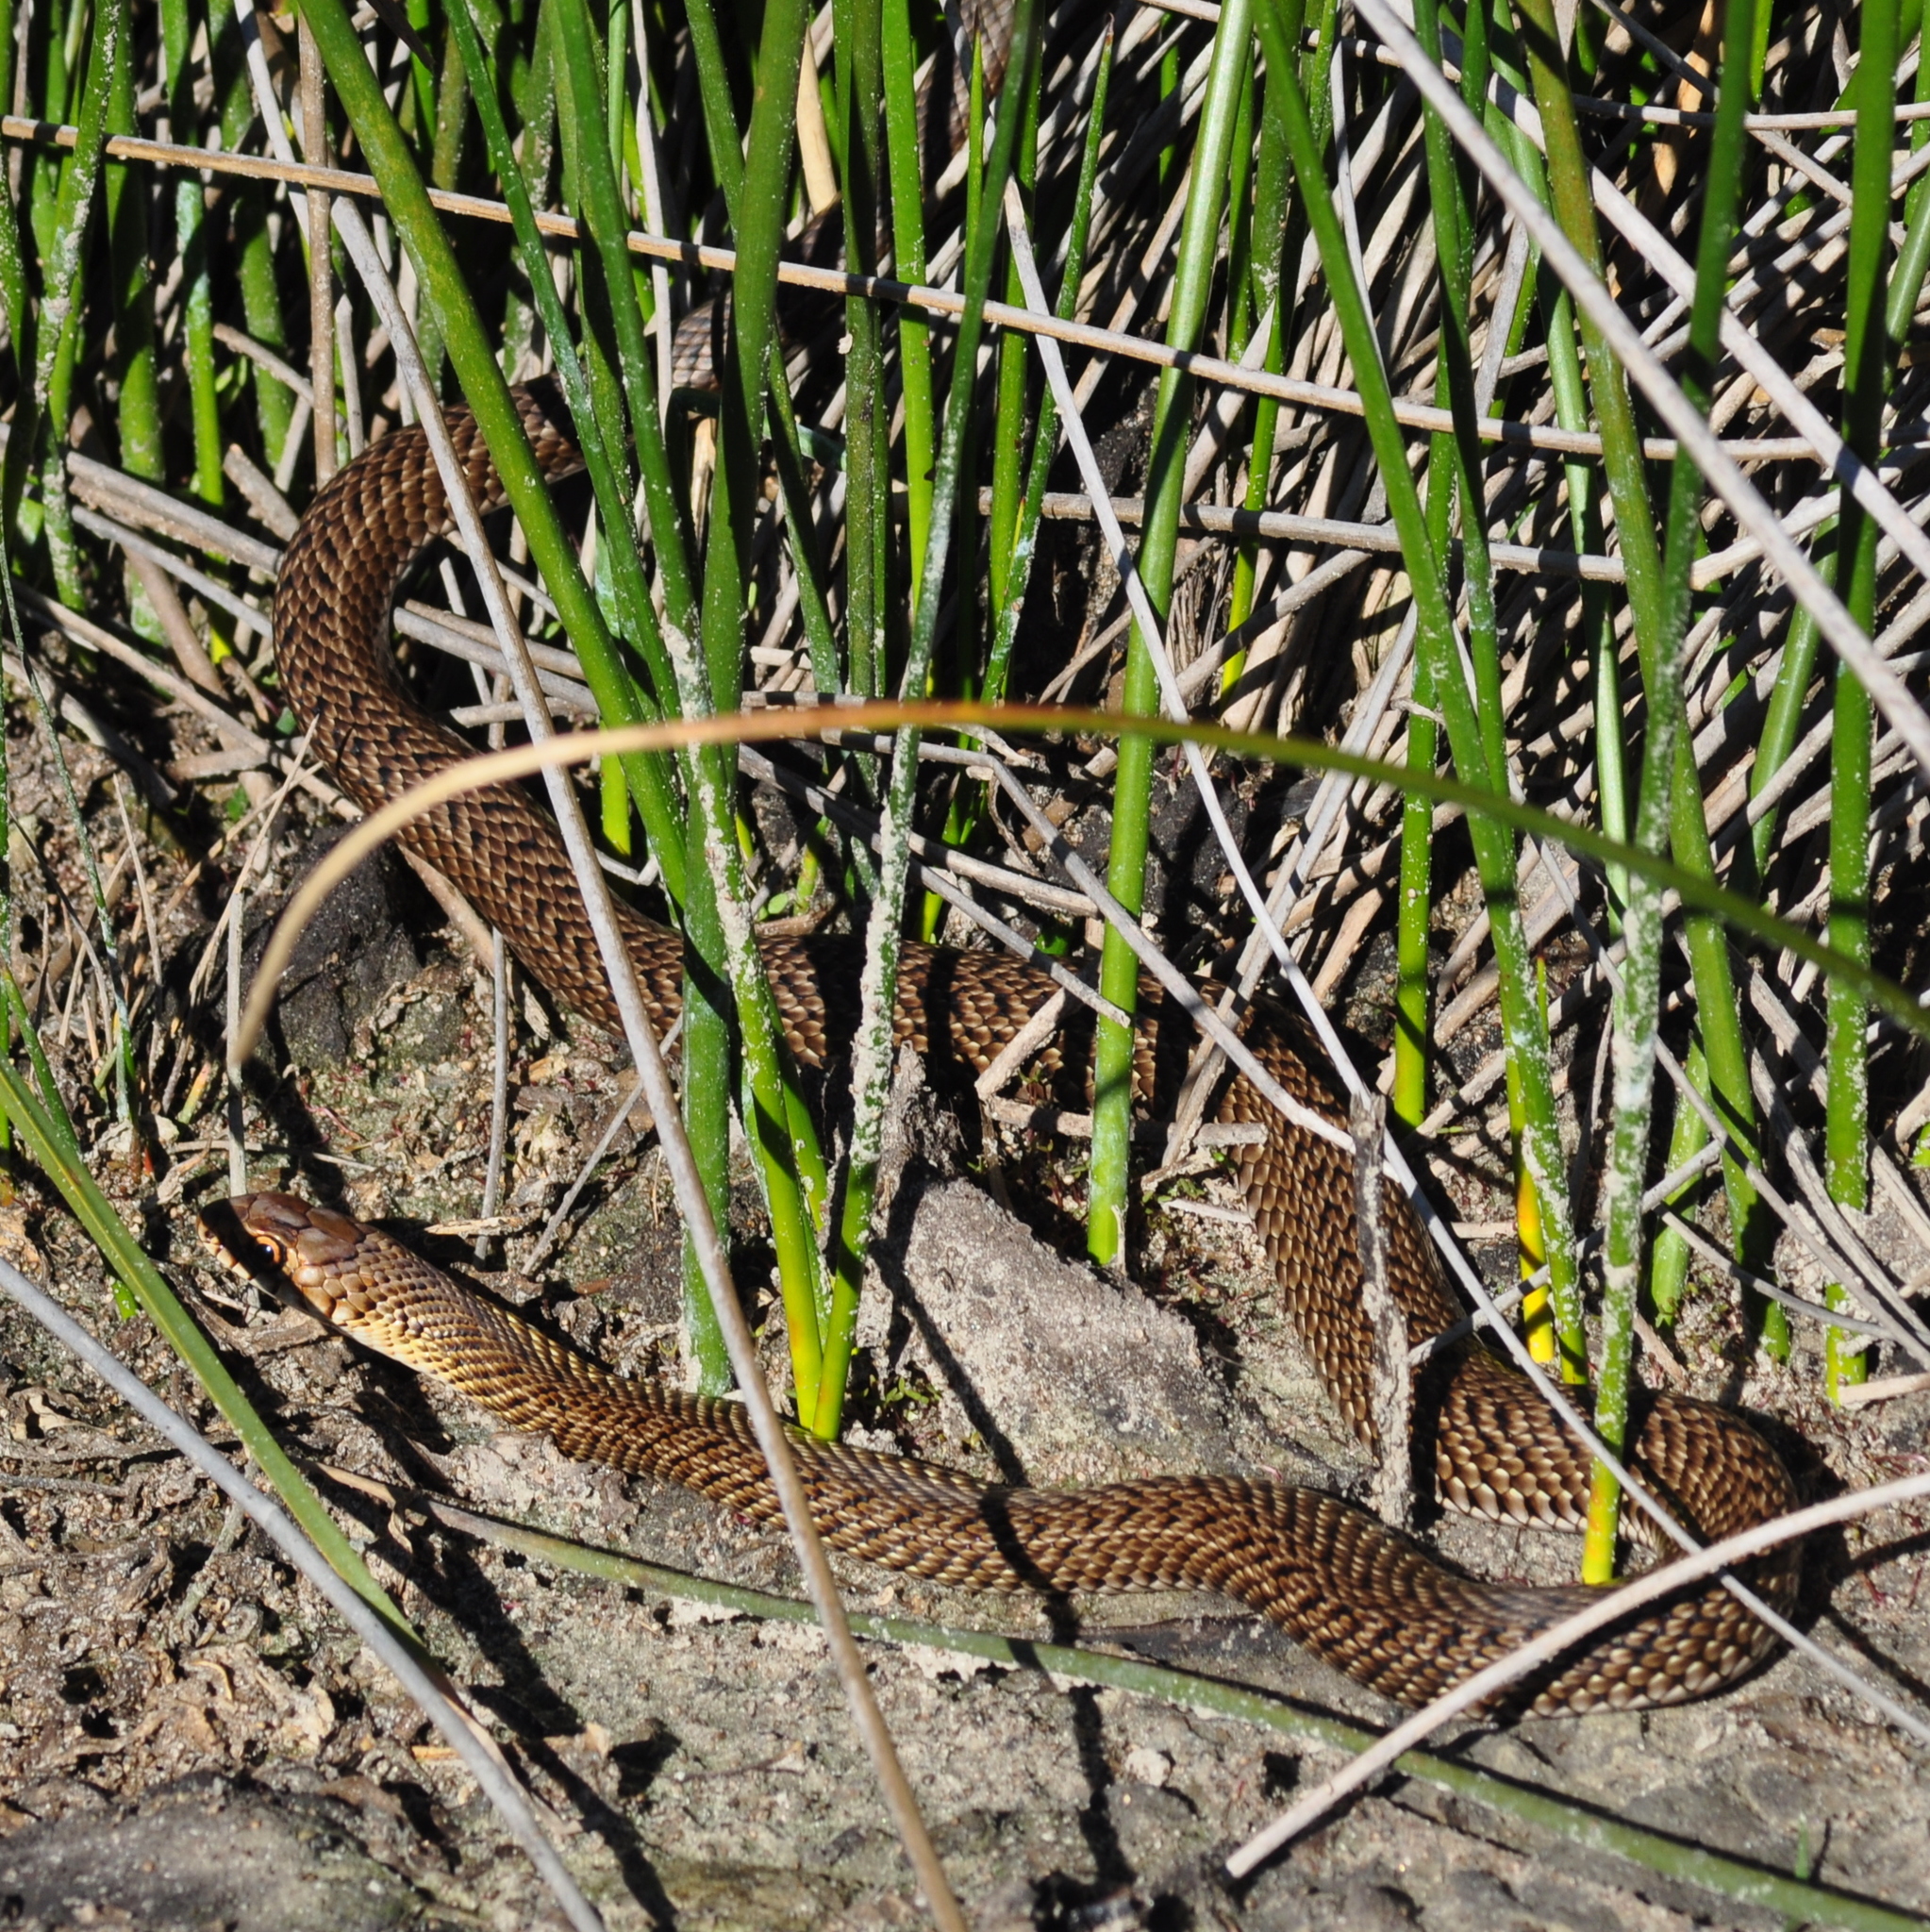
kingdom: Animalia
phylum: Chordata
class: Squamata
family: Colubridae
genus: Philodryas
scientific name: Philodryas patagoniensis
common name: Patagonia green racer
